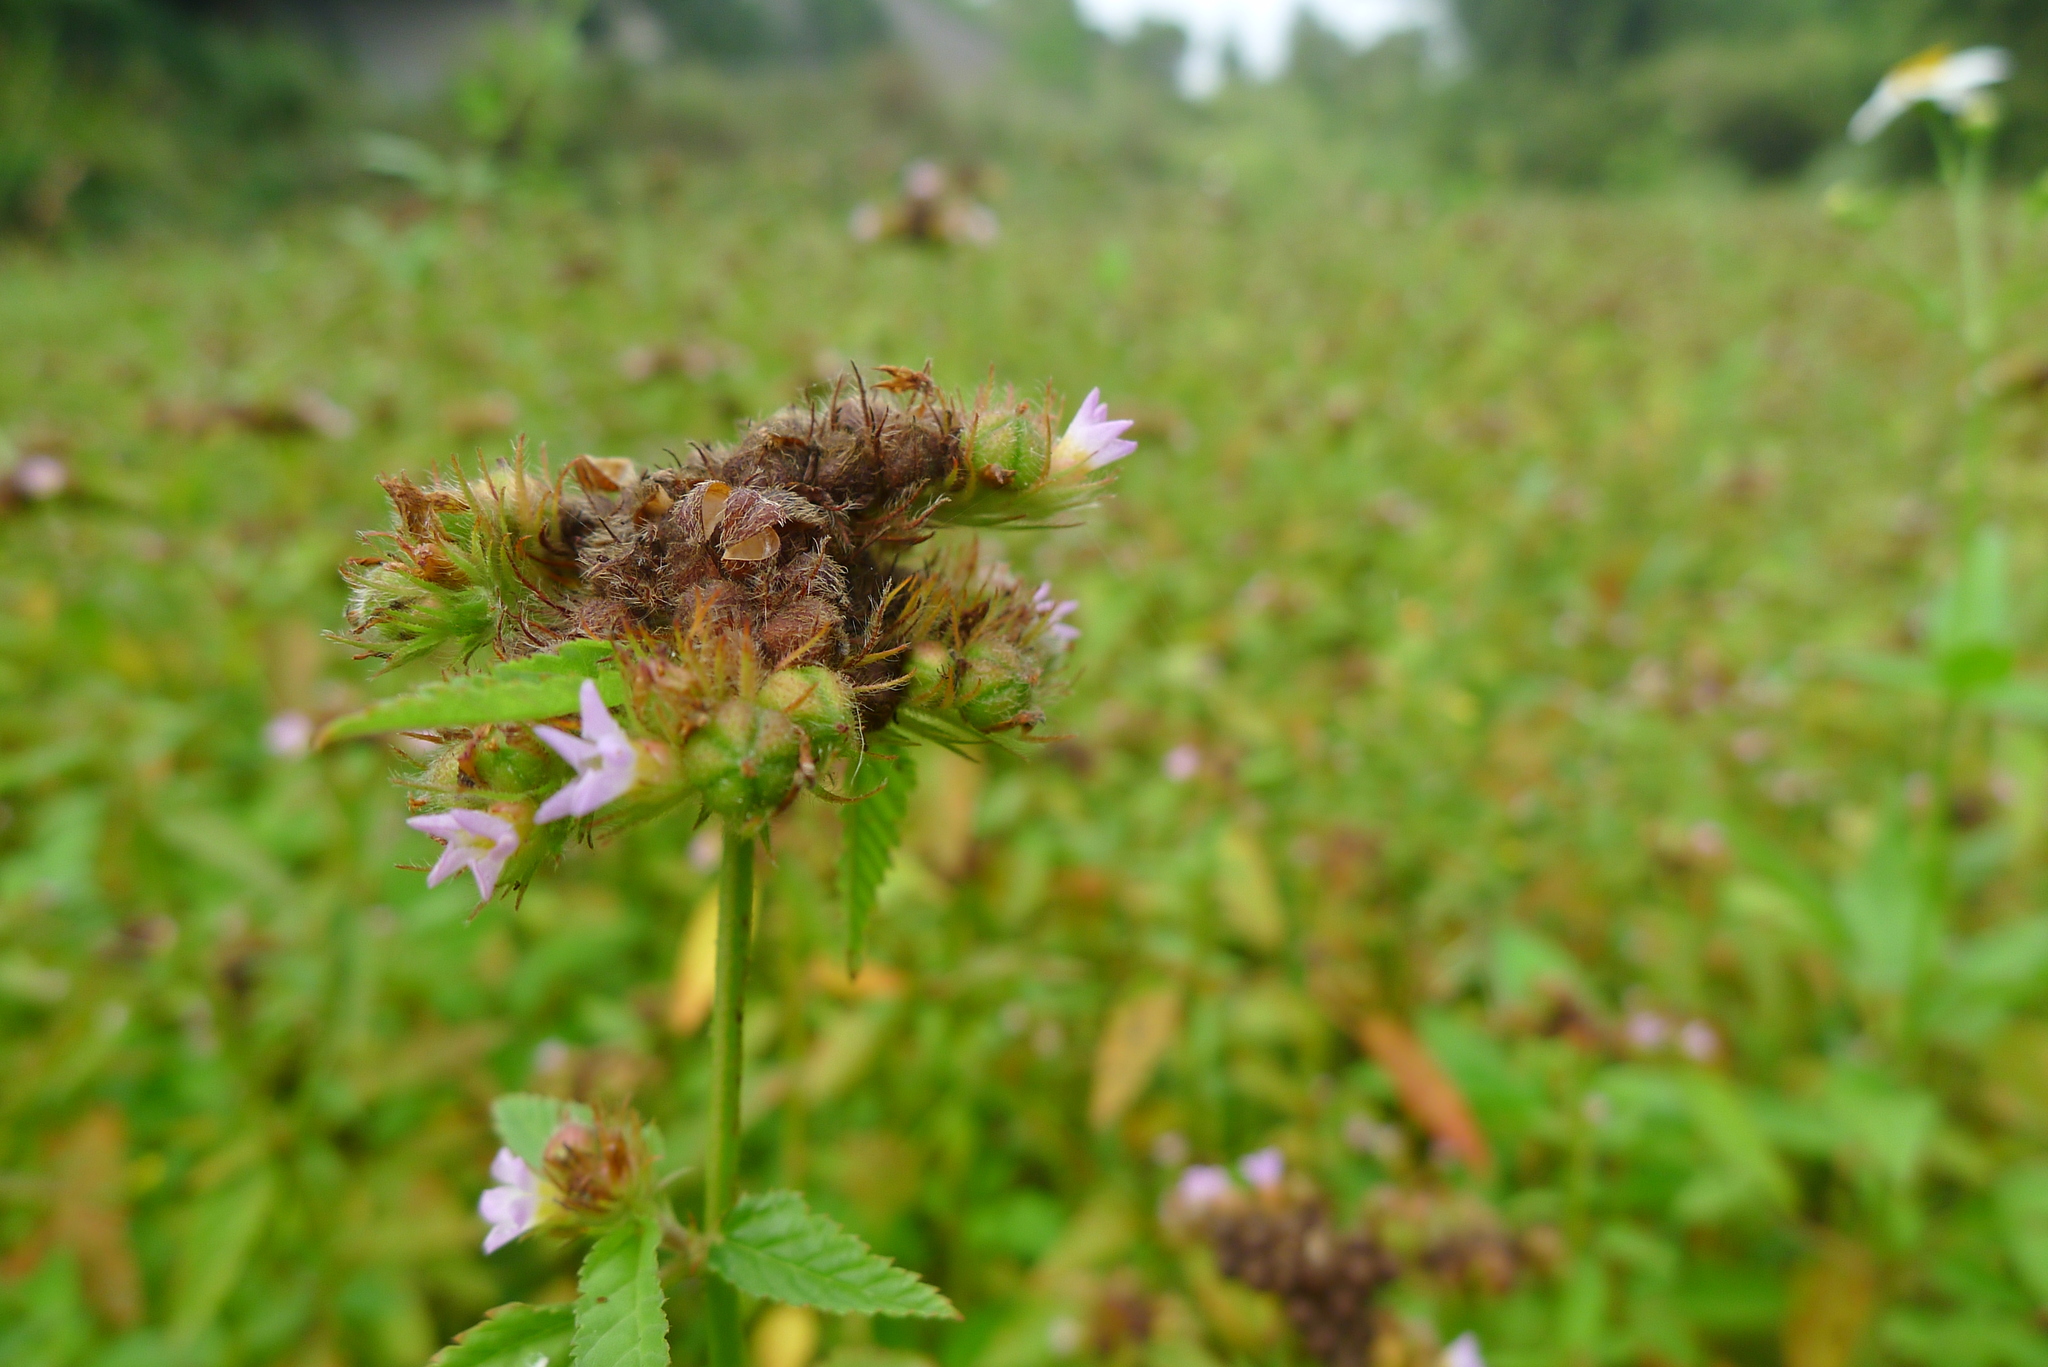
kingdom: Plantae
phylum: Tracheophyta
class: Magnoliopsida
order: Malvales
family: Malvaceae
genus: Melochia
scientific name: Melochia corchorifolia
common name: Chocolateweed
